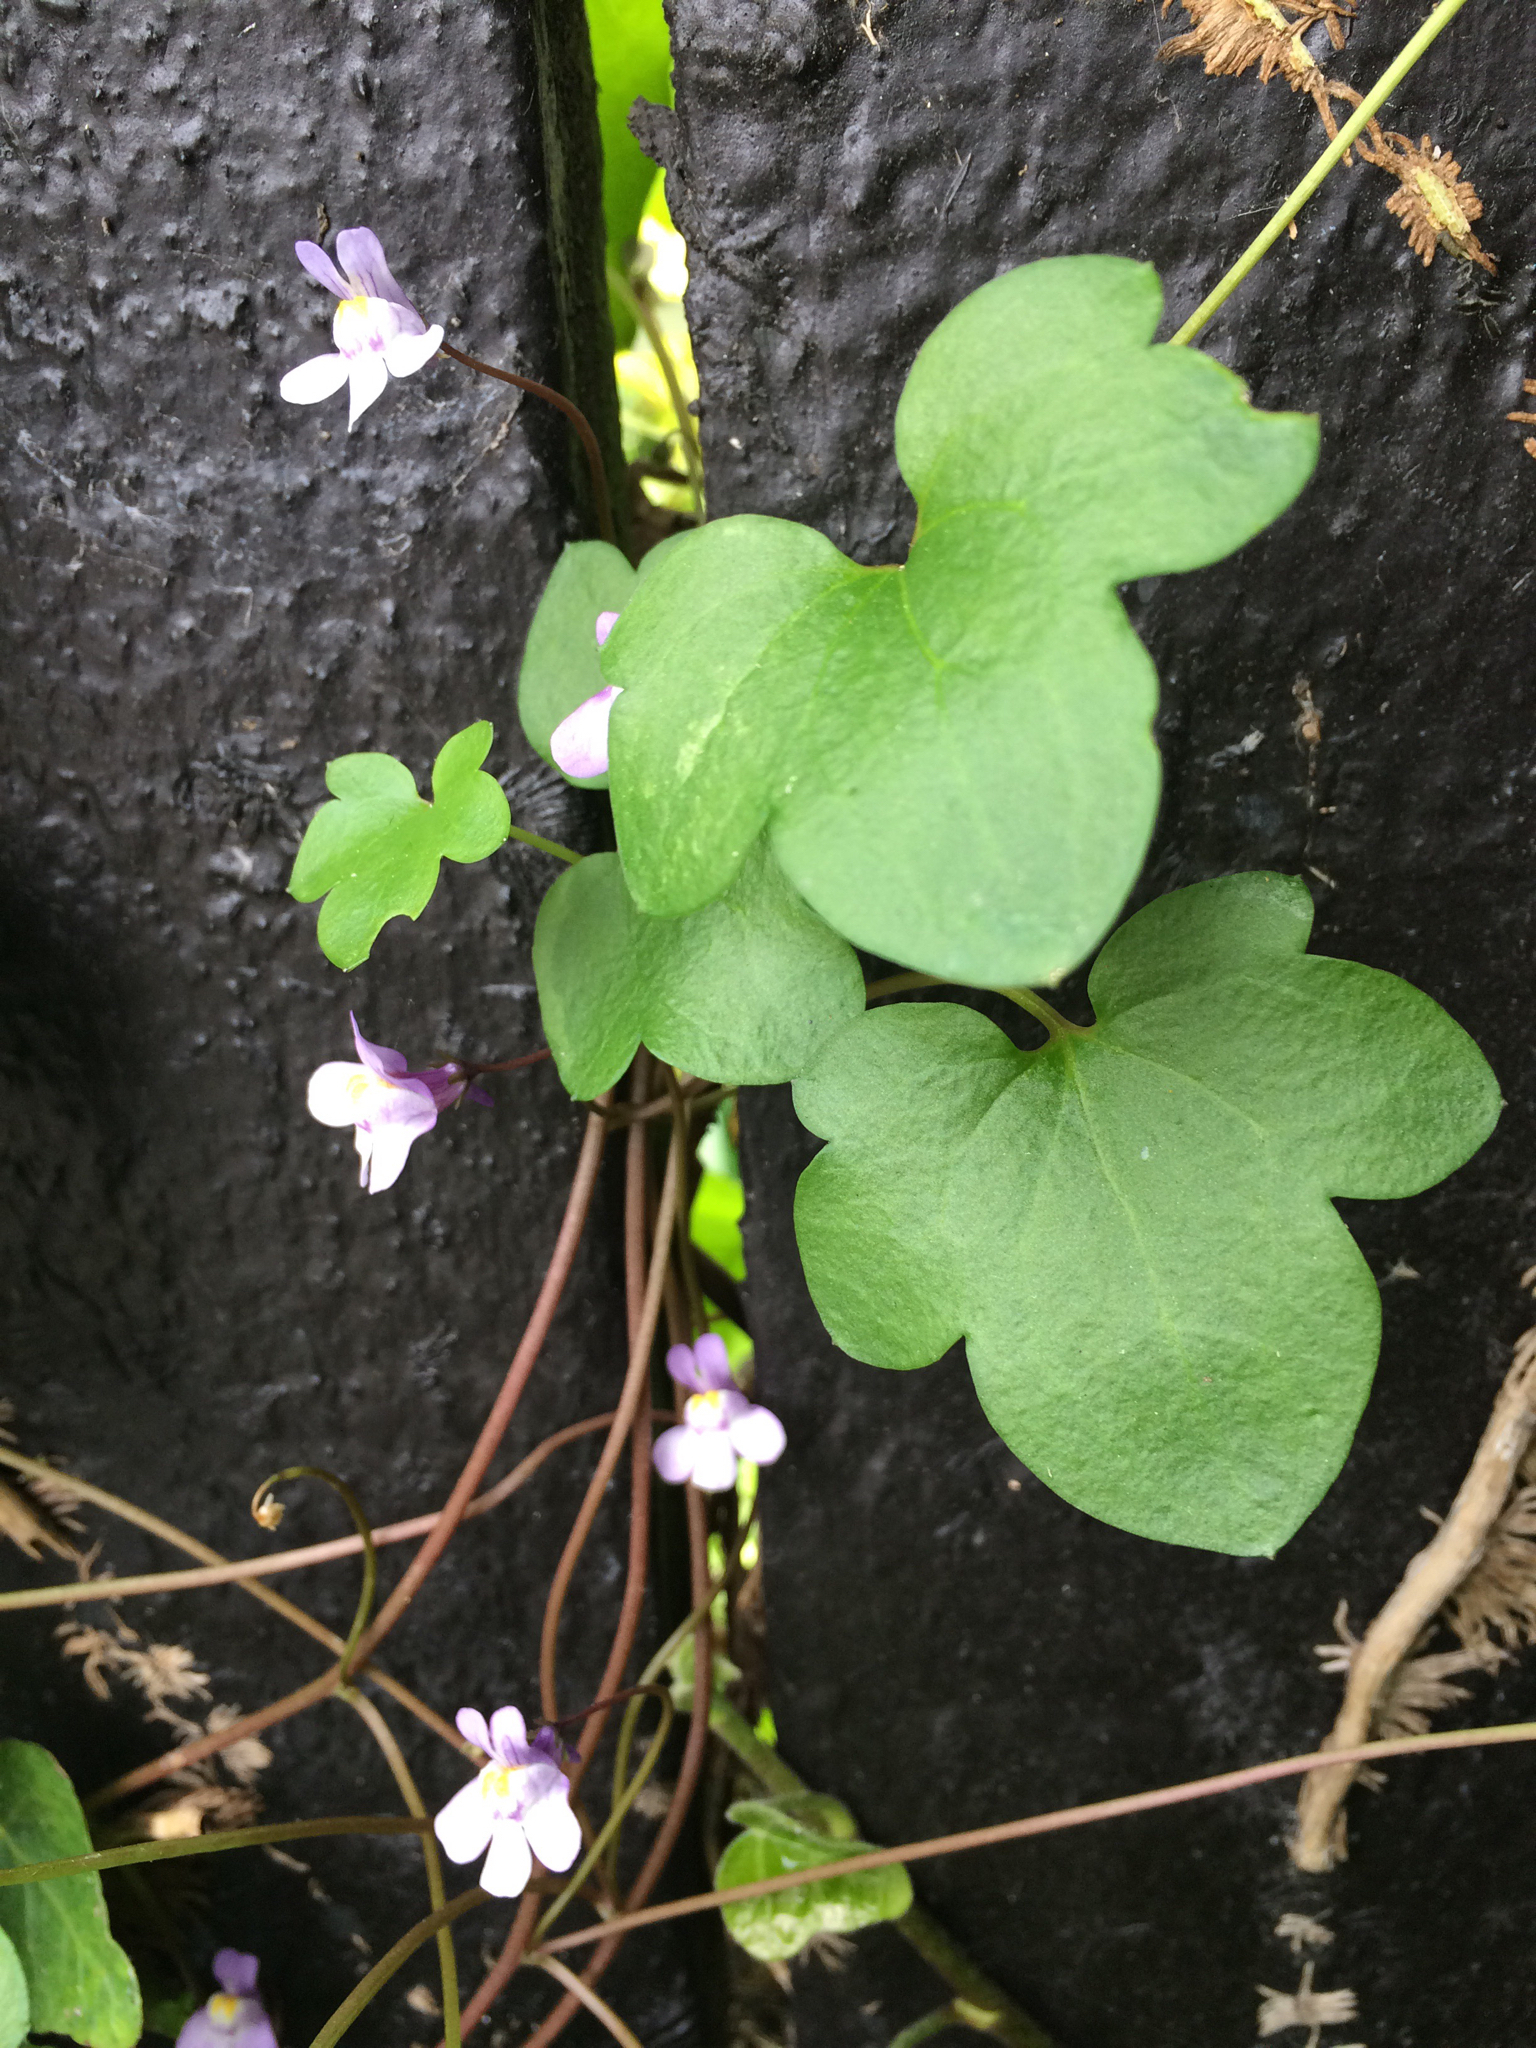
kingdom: Plantae
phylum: Tracheophyta
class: Magnoliopsida
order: Lamiales
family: Plantaginaceae
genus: Cymbalaria
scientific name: Cymbalaria muralis
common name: Ivy-leaved toadflax
